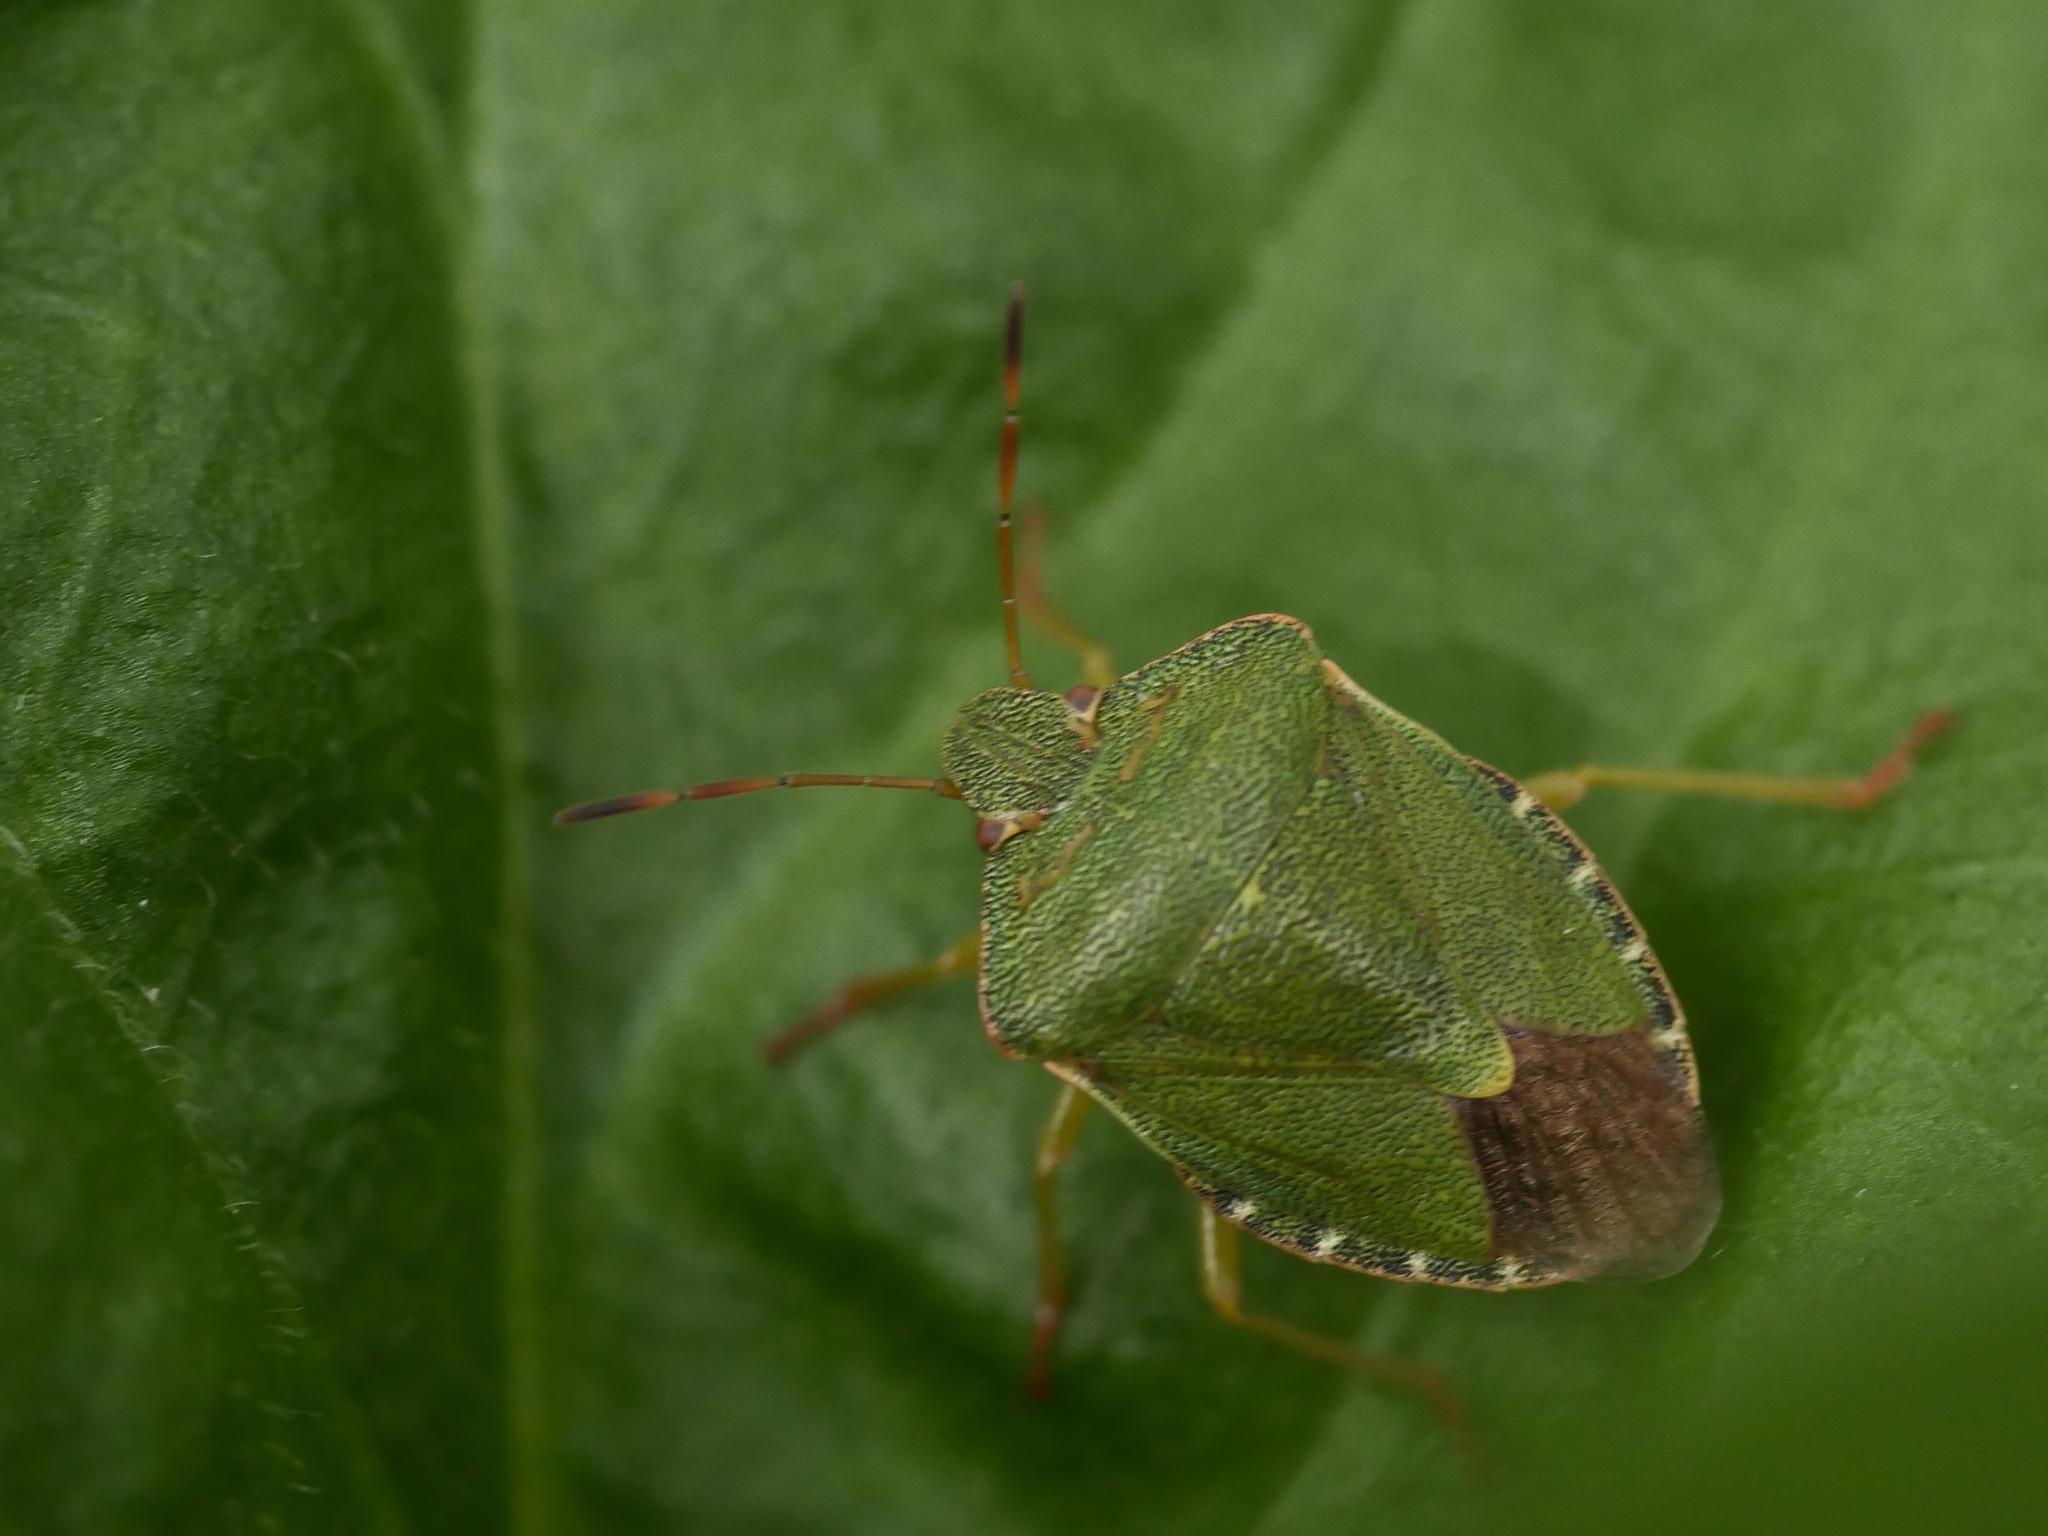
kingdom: Animalia
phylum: Arthropoda
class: Insecta
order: Hemiptera
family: Pentatomidae
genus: Palomena
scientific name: Palomena prasina
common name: Green shieldbug
